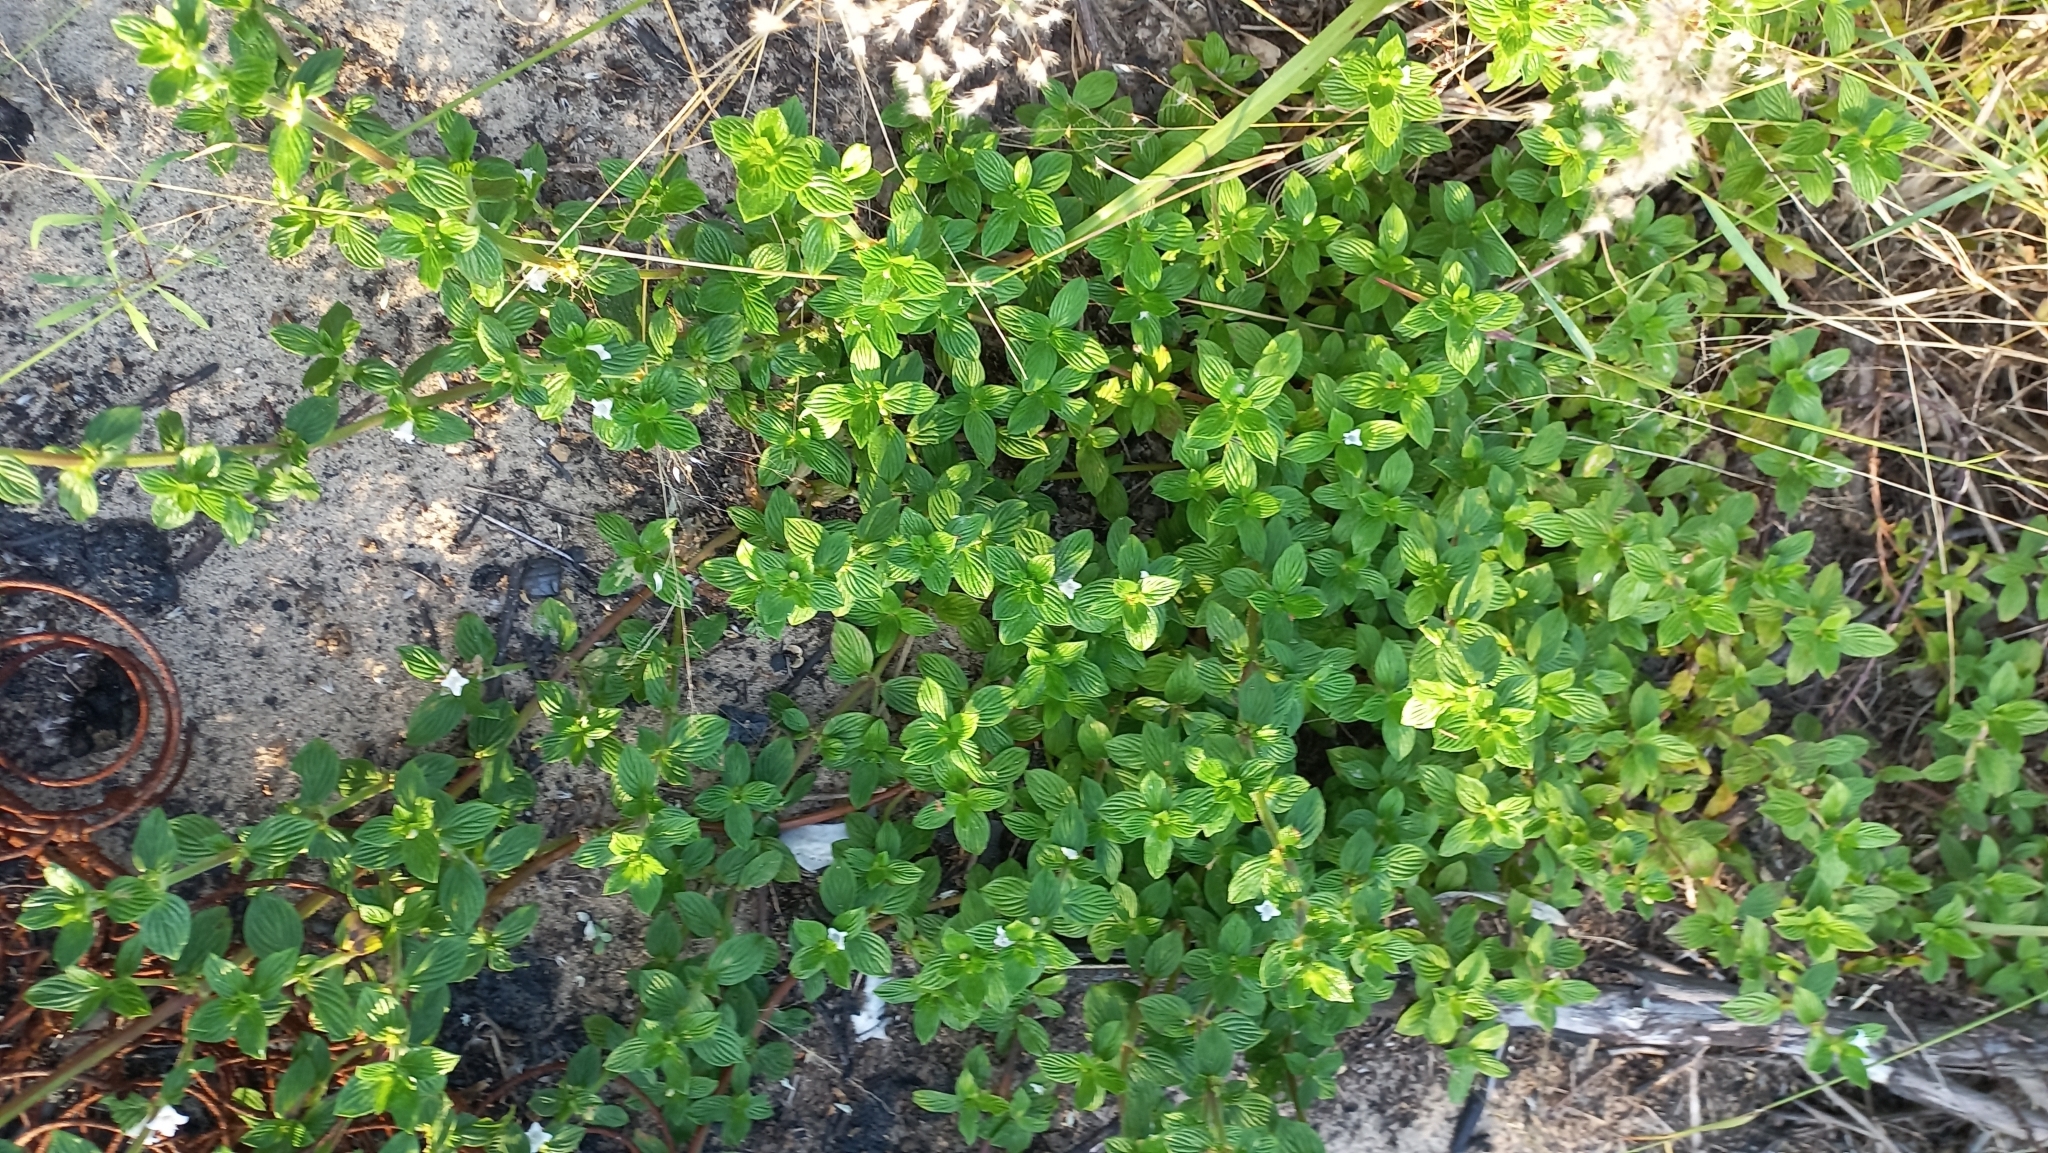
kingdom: Plantae
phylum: Tracheophyta
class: Magnoliopsida
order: Gentianales
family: Rubiaceae
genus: Hexasepalum
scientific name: Hexasepalum radulum
